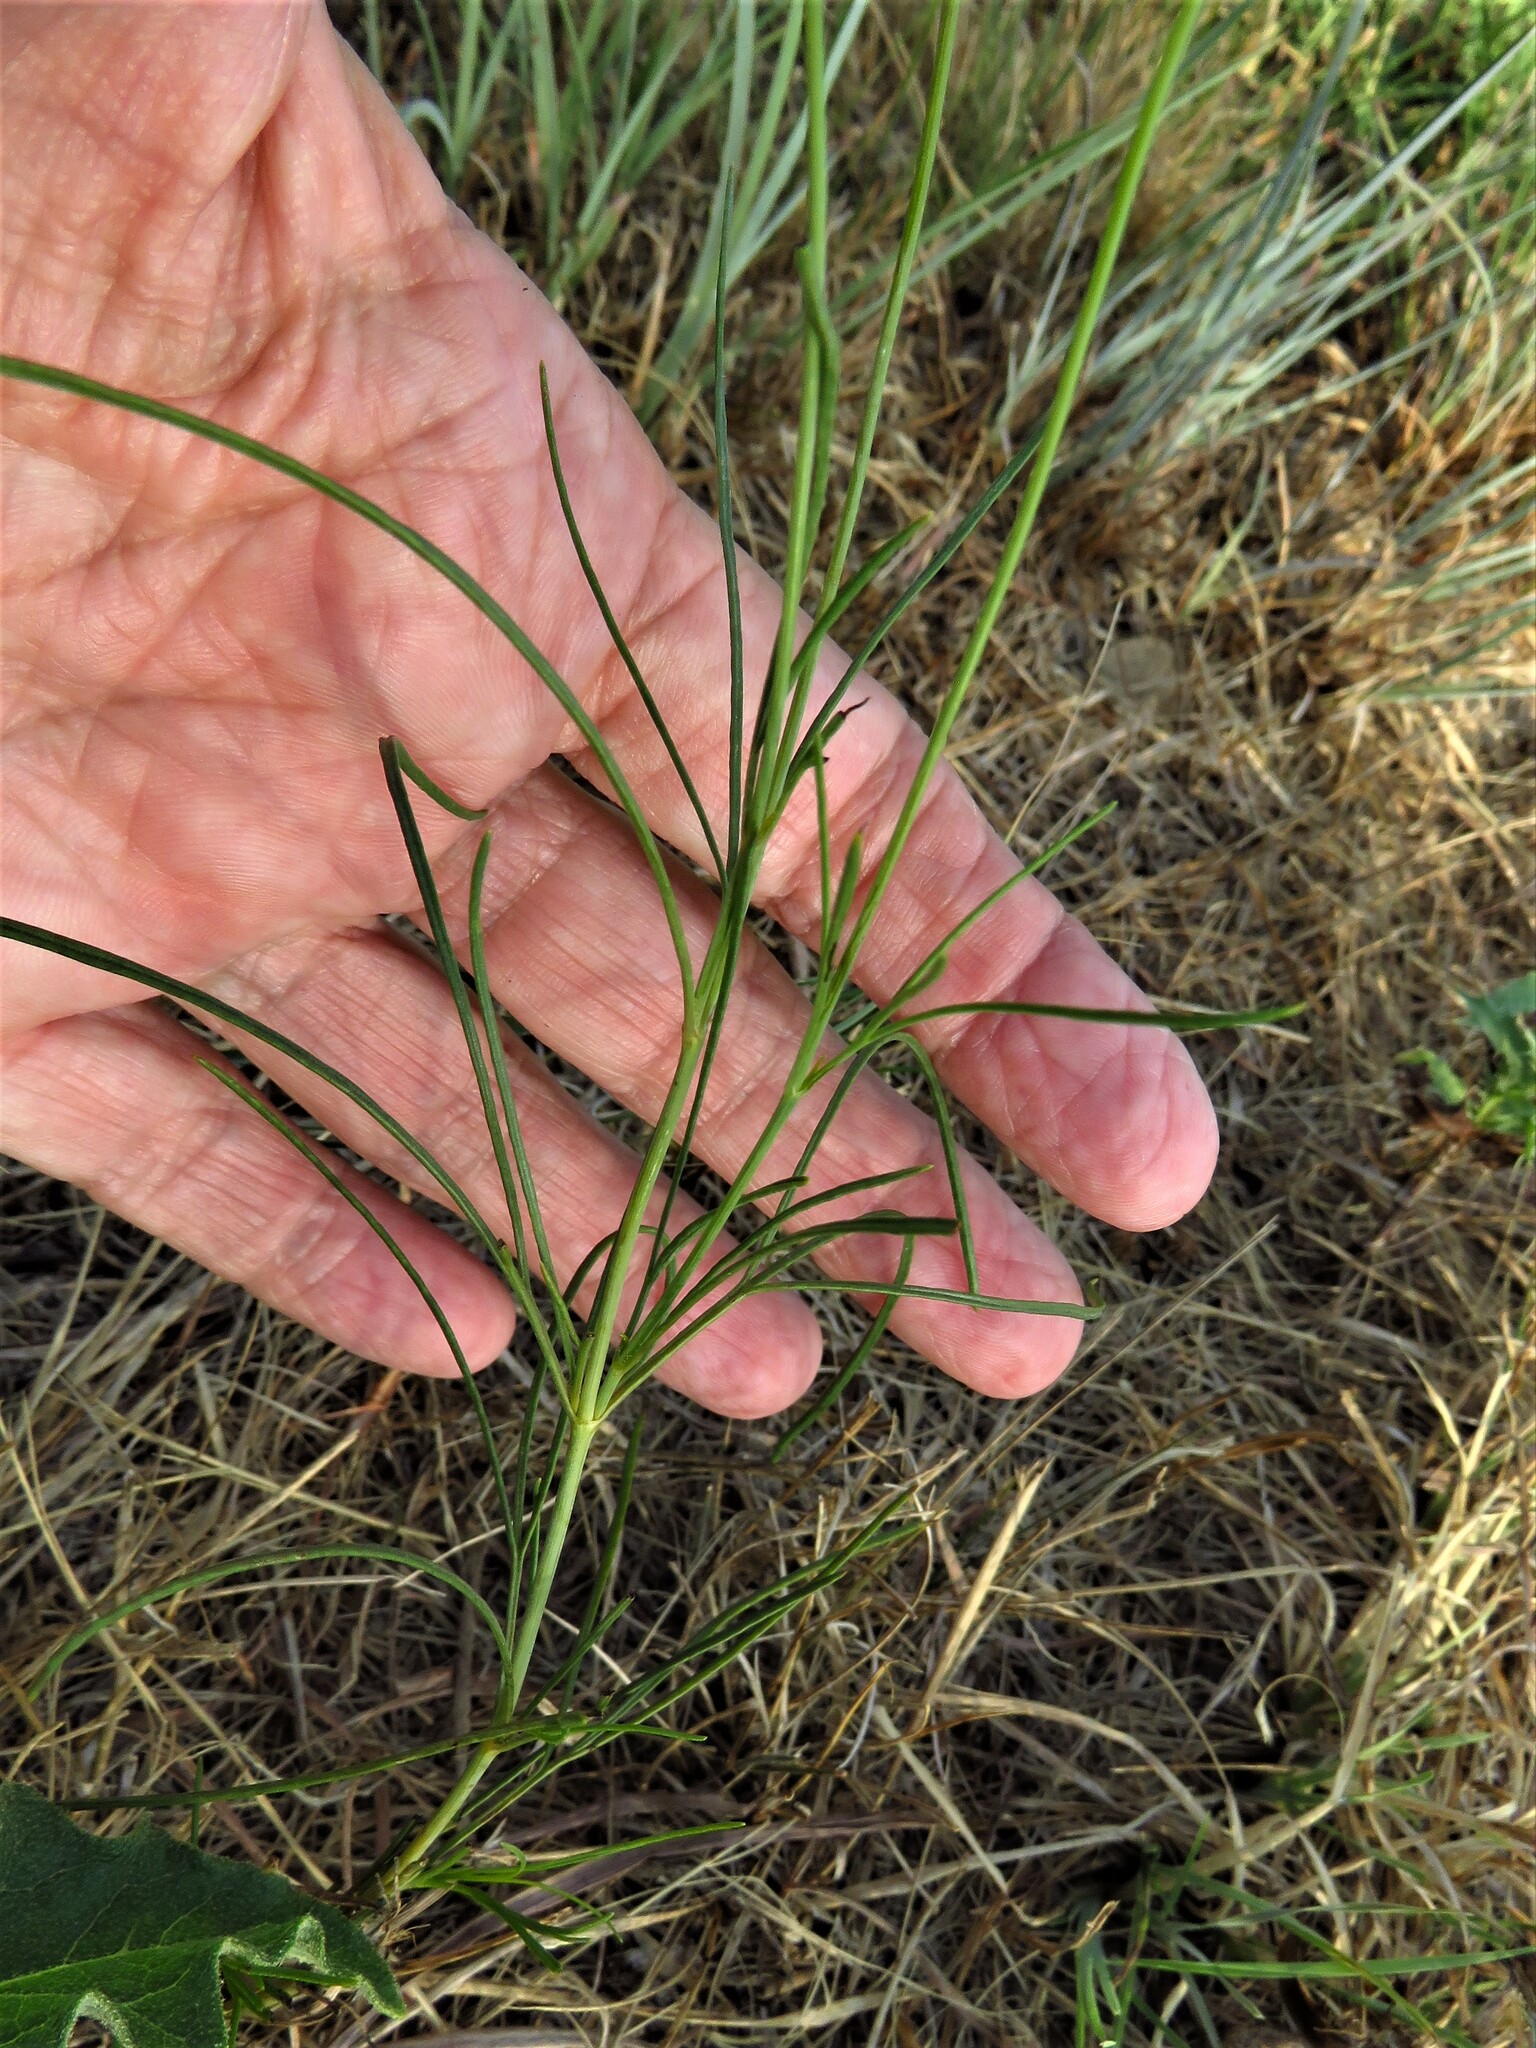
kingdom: Plantae
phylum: Tracheophyta
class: Magnoliopsida
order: Asterales
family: Asteraceae
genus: Thelesperma
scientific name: Thelesperma filifolium
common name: Stiff greenthread
